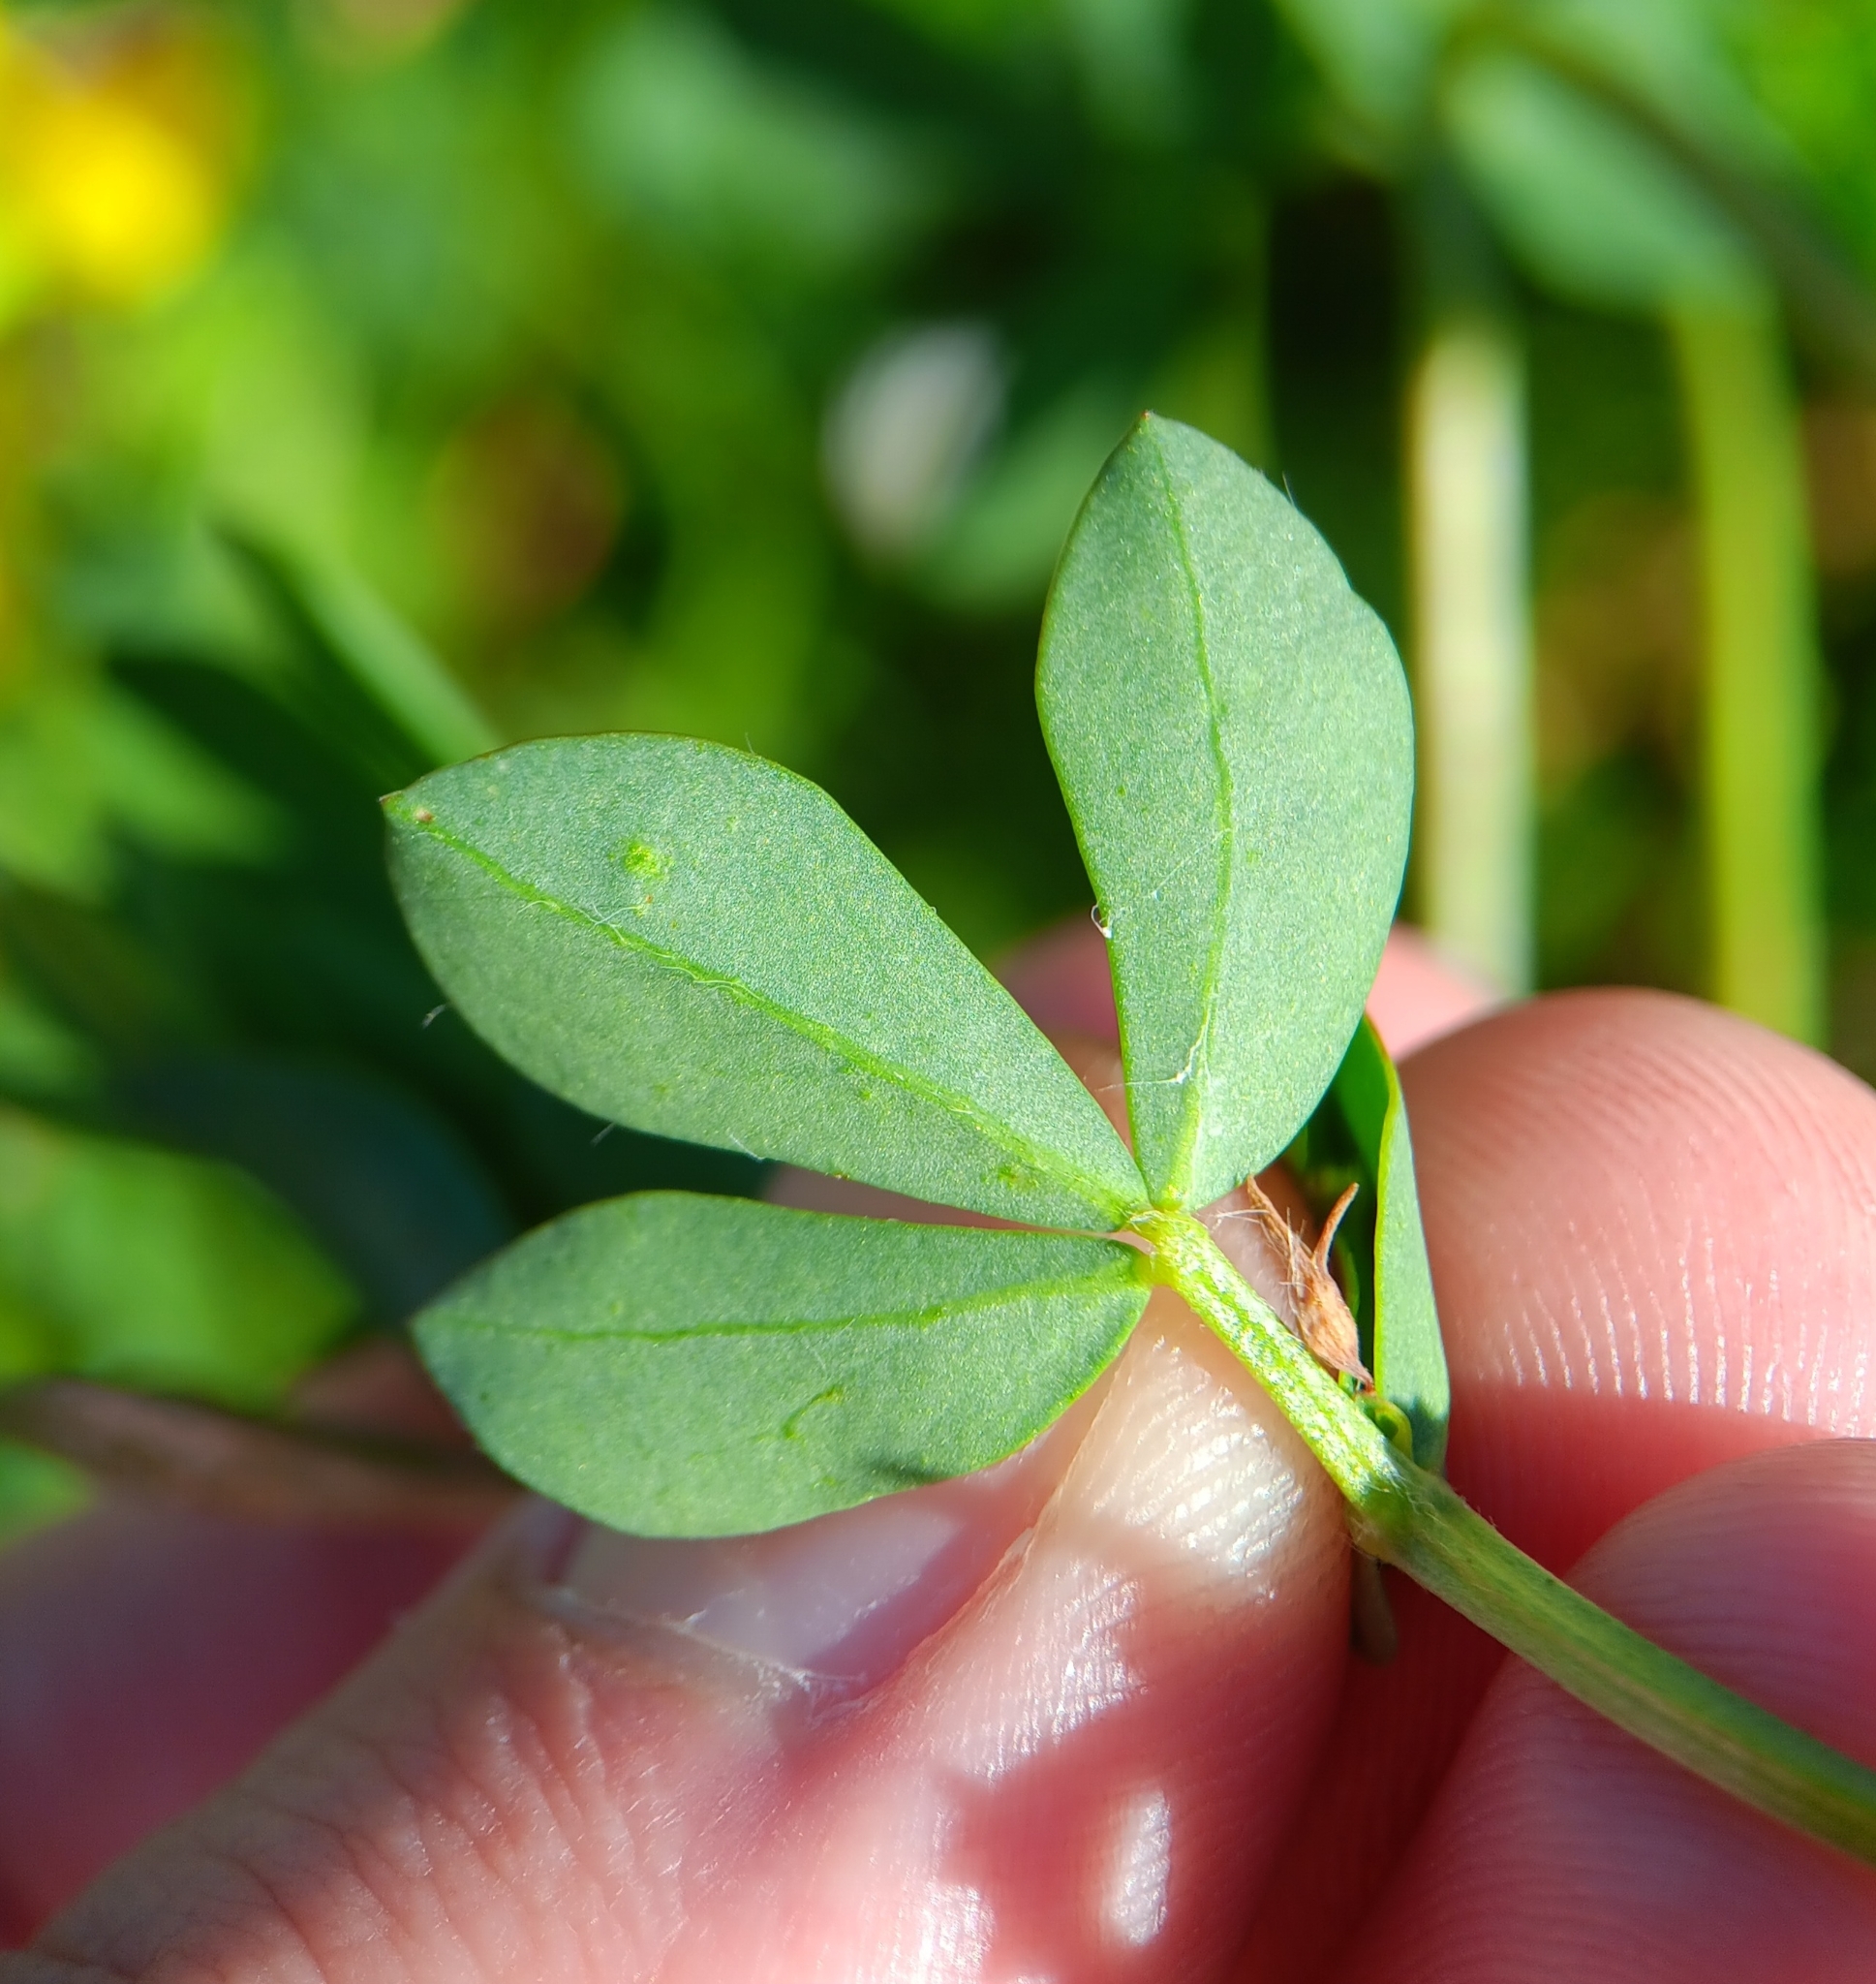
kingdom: Plantae
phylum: Tracheophyta
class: Magnoliopsida
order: Fabales
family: Fabaceae
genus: Lotus
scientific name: Lotus corniculatus
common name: Common bird's-foot-trefoil
